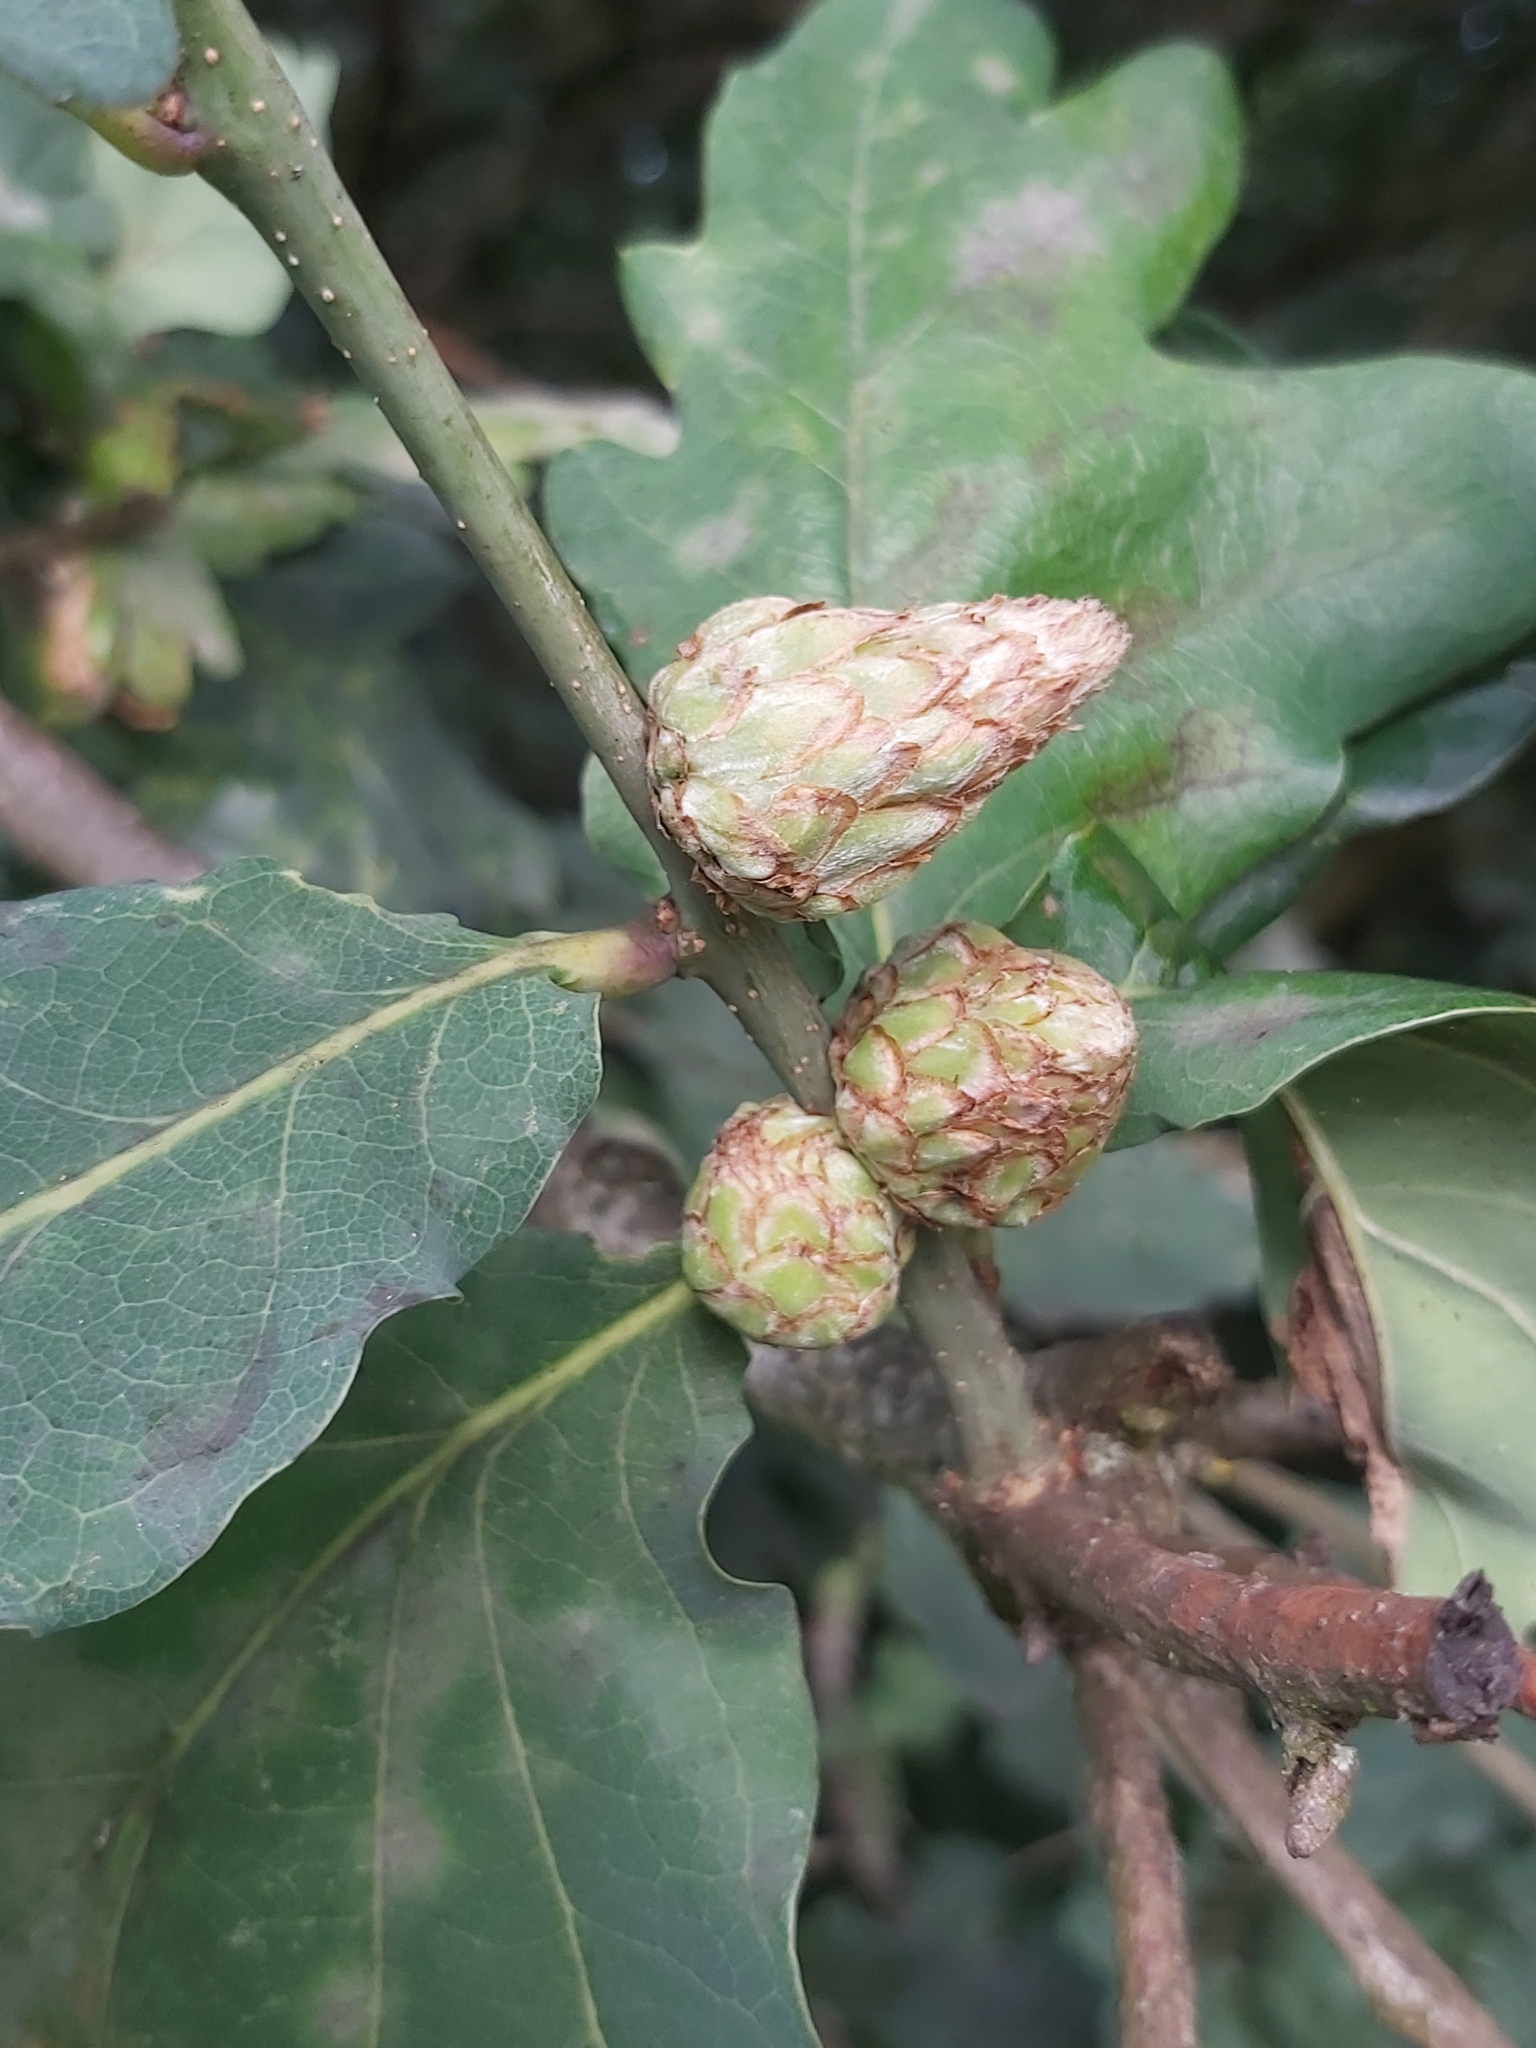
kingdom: Animalia
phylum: Arthropoda
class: Insecta
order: Hymenoptera
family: Cynipidae
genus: Andricus
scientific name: Andricus foecundatrix
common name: Artichoke gall
